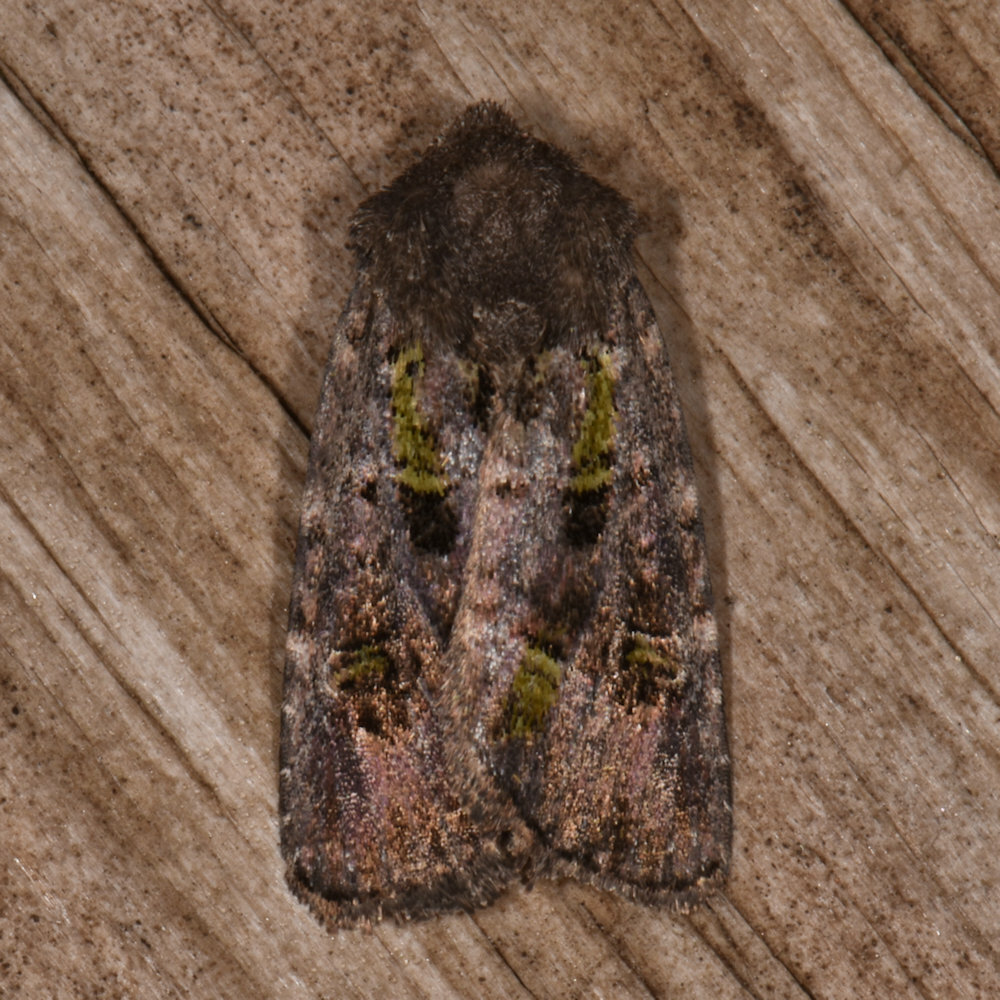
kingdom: Animalia
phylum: Arthropoda
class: Insecta
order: Lepidoptera
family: Noctuidae
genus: Lacinipolia
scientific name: Lacinipolia renigera
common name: Kidney-spotted minor
